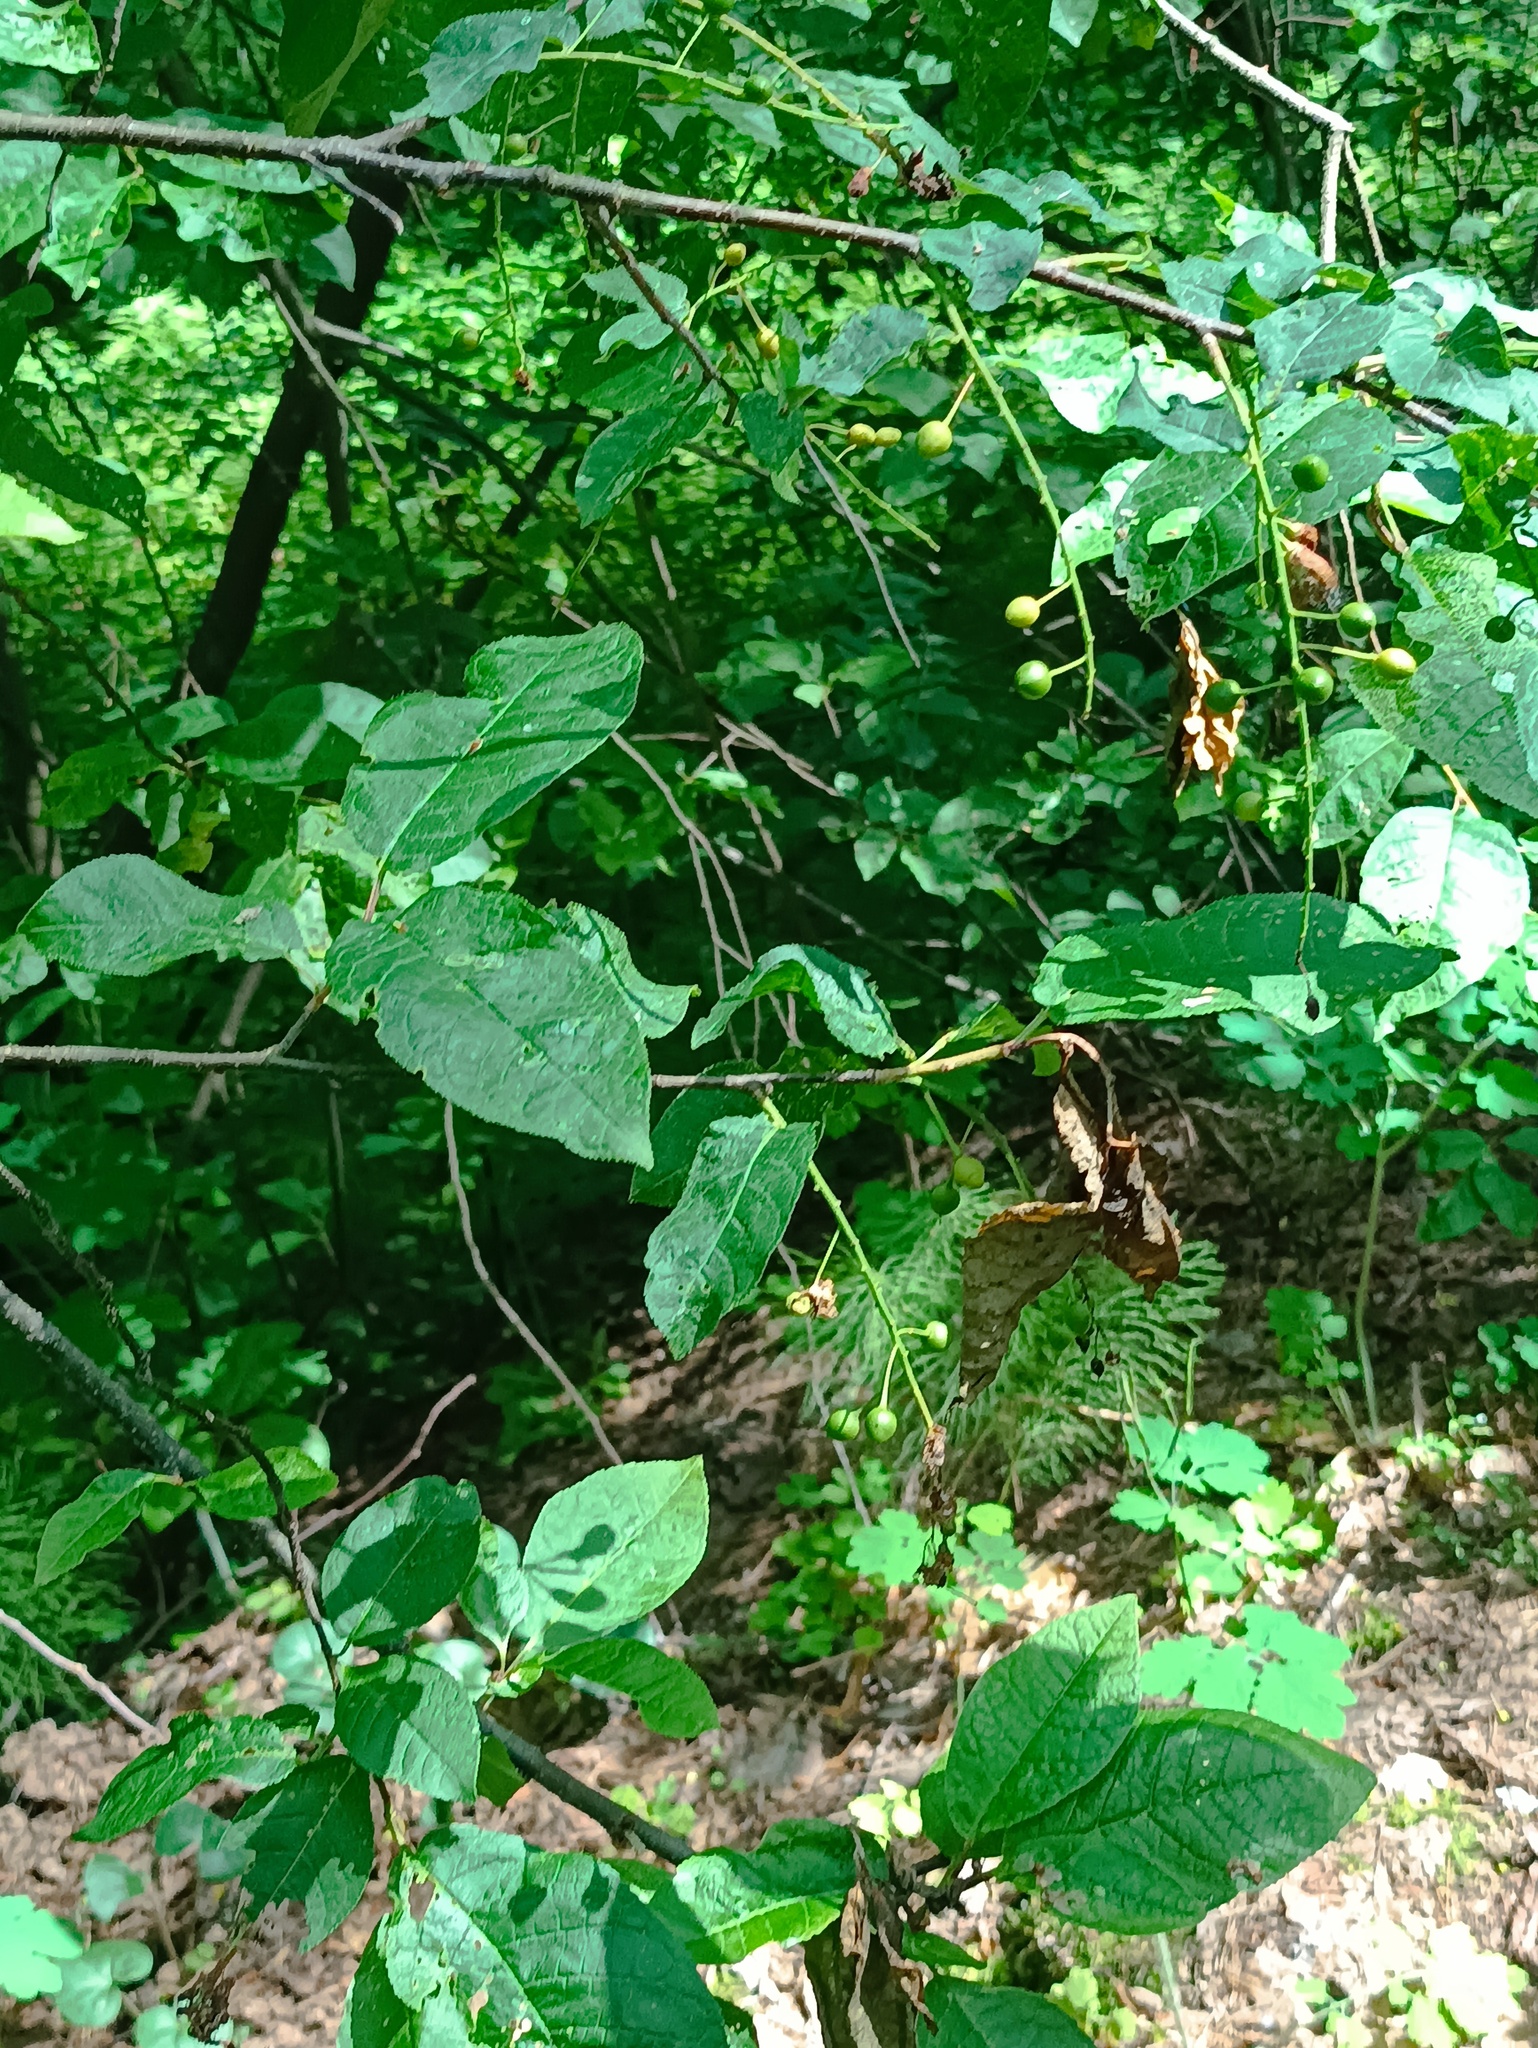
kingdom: Plantae
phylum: Tracheophyta
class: Magnoliopsida
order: Rosales
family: Rosaceae
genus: Prunus
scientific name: Prunus padus
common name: Bird cherry
